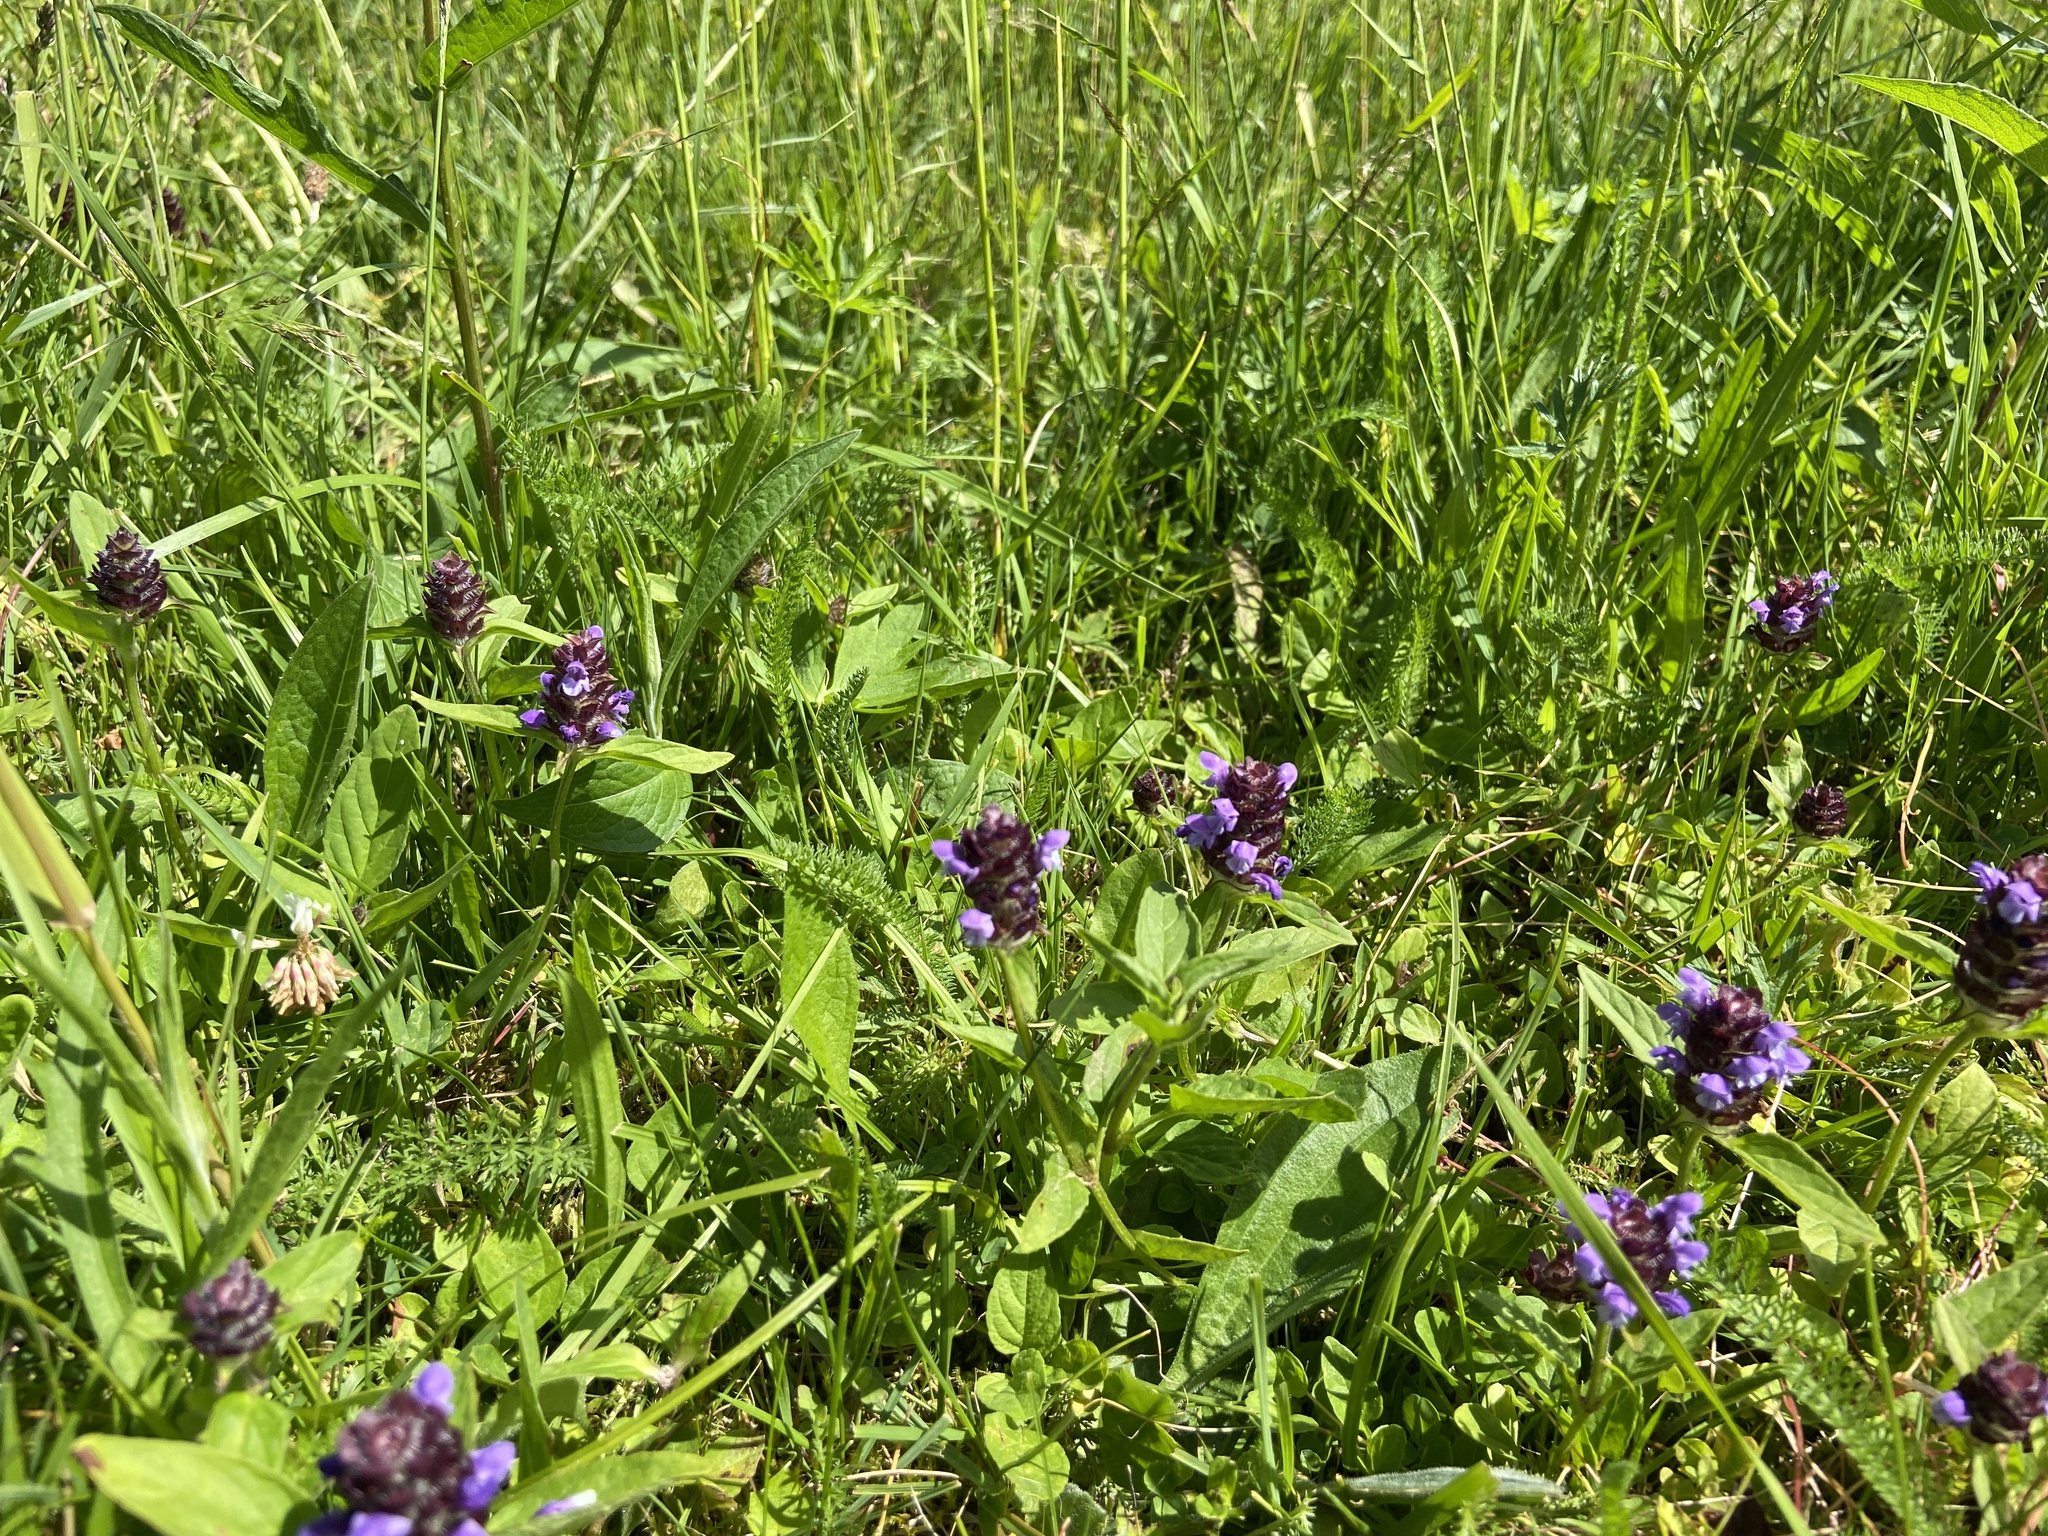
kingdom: Plantae
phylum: Tracheophyta
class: Magnoliopsida
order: Lamiales
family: Lamiaceae
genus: Prunella
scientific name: Prunella vulgaris
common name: Heal-all
